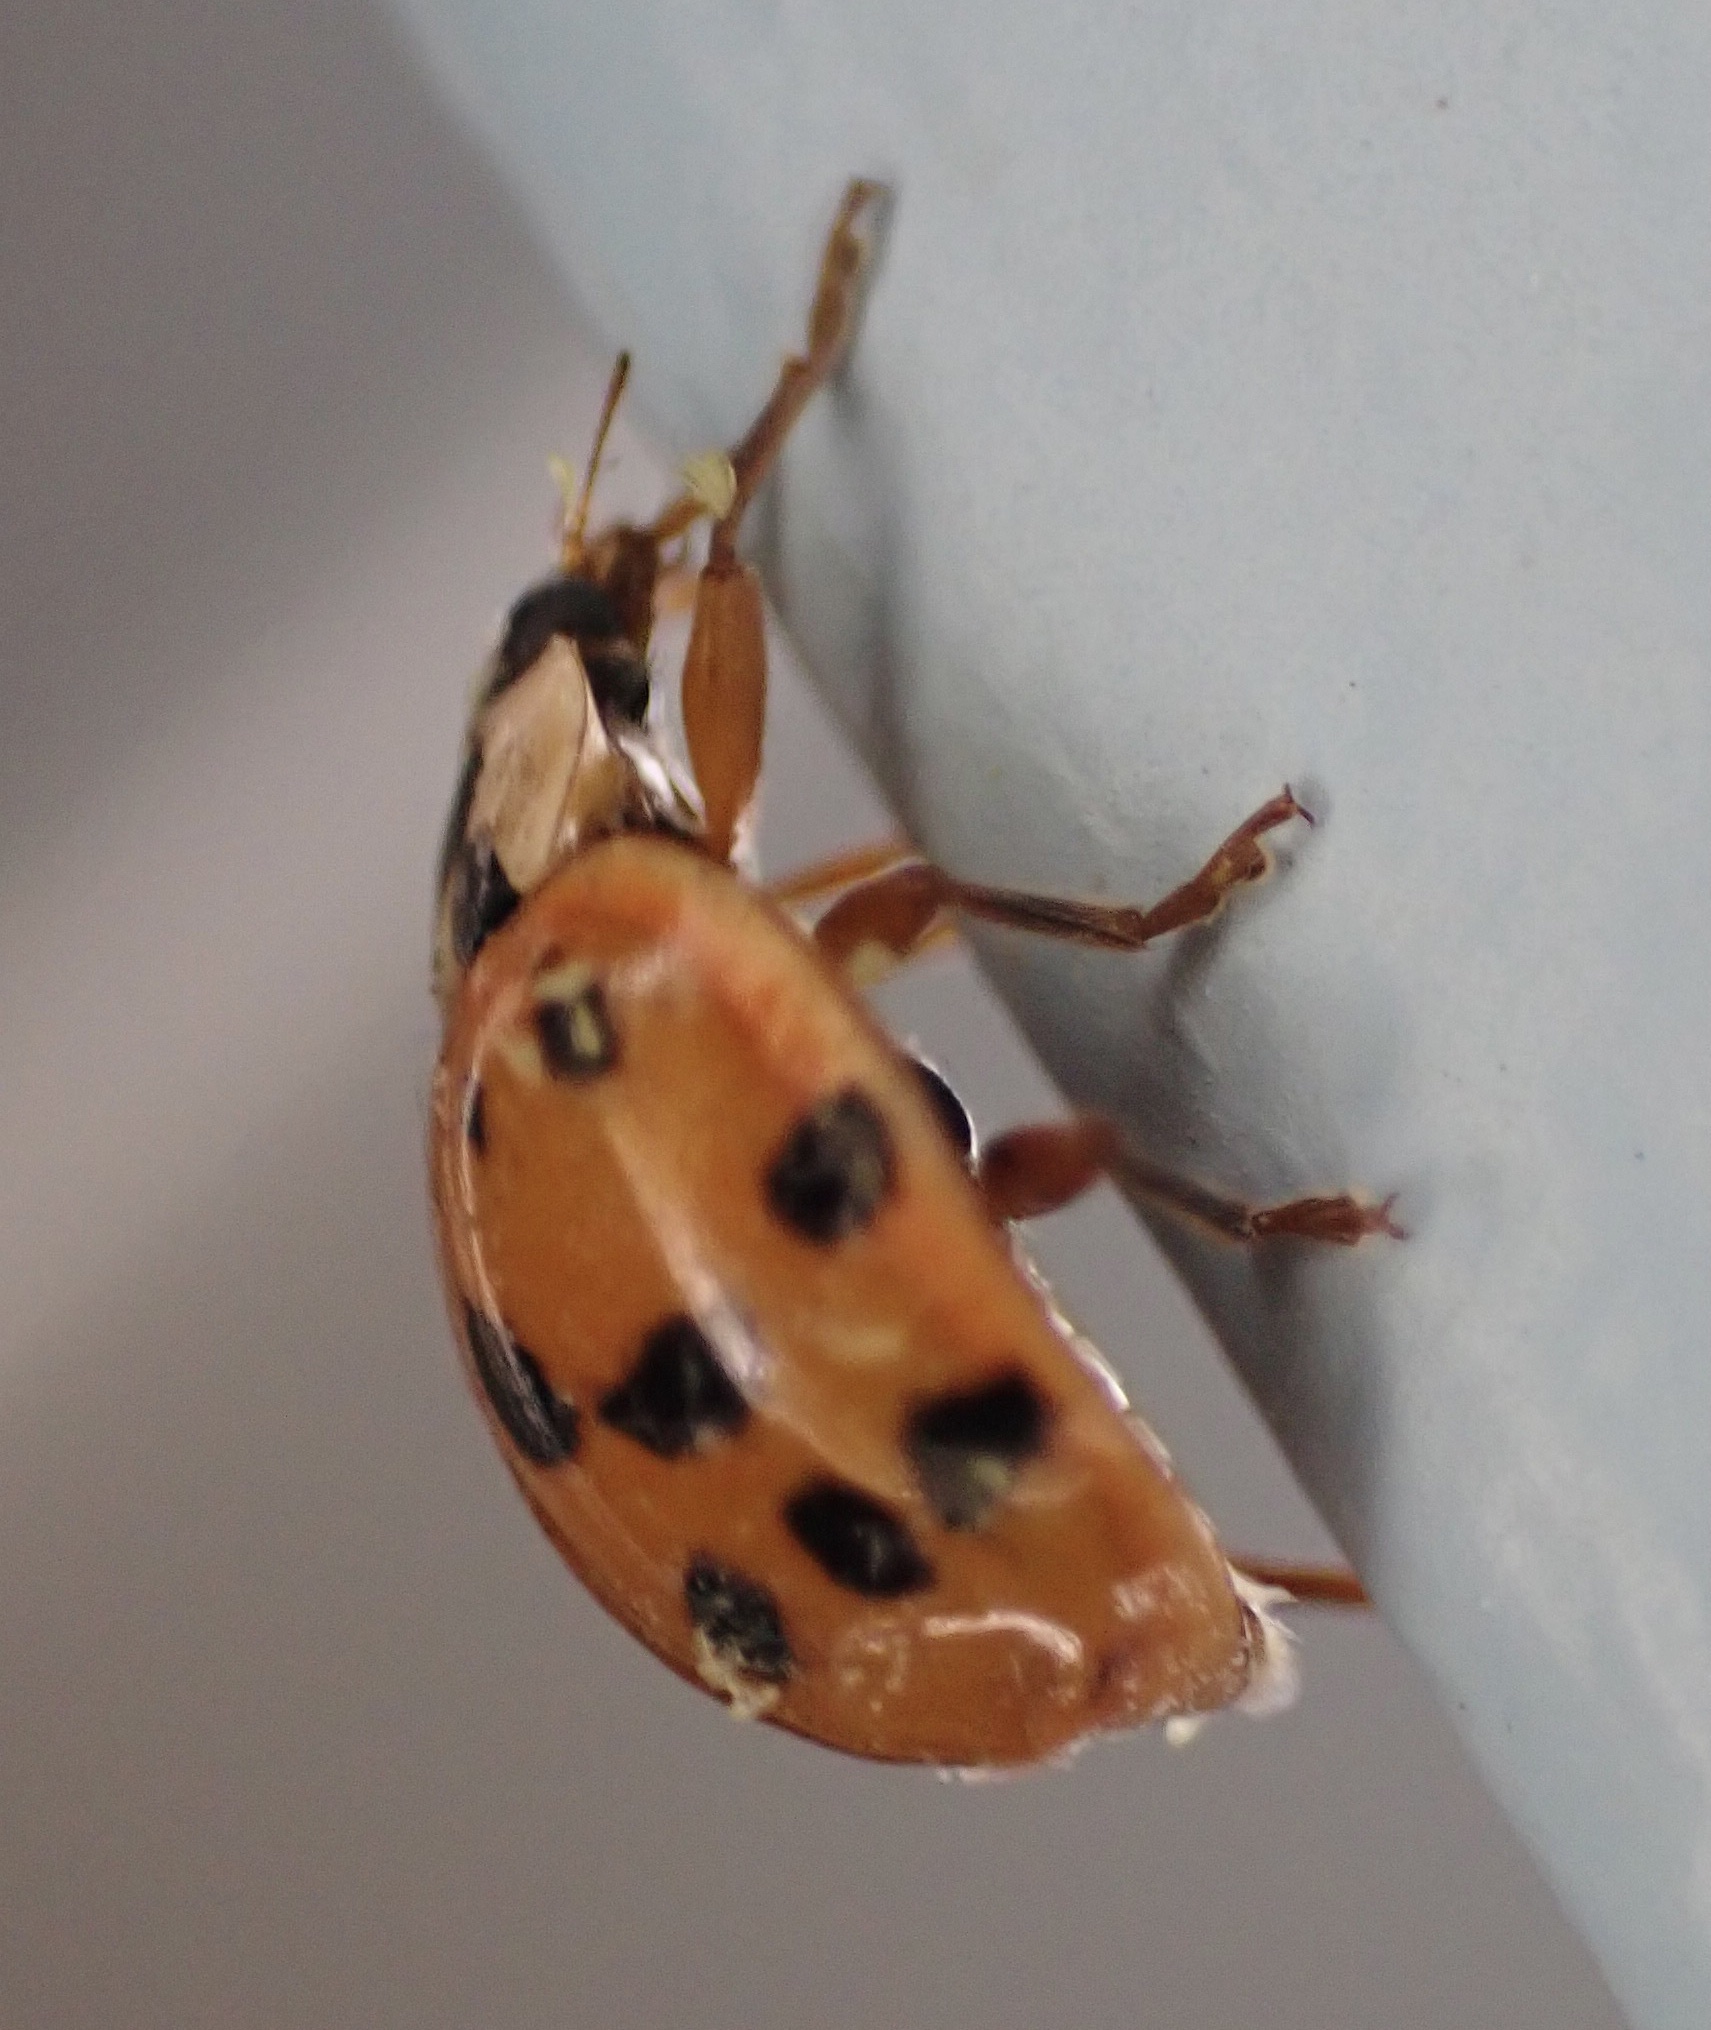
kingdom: Animalia
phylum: Arthropoda
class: Insecta
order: Coleoptera
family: Coccinellidae
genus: Harmonia
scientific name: Harmonia axyridis
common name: Harlequin ladybird
